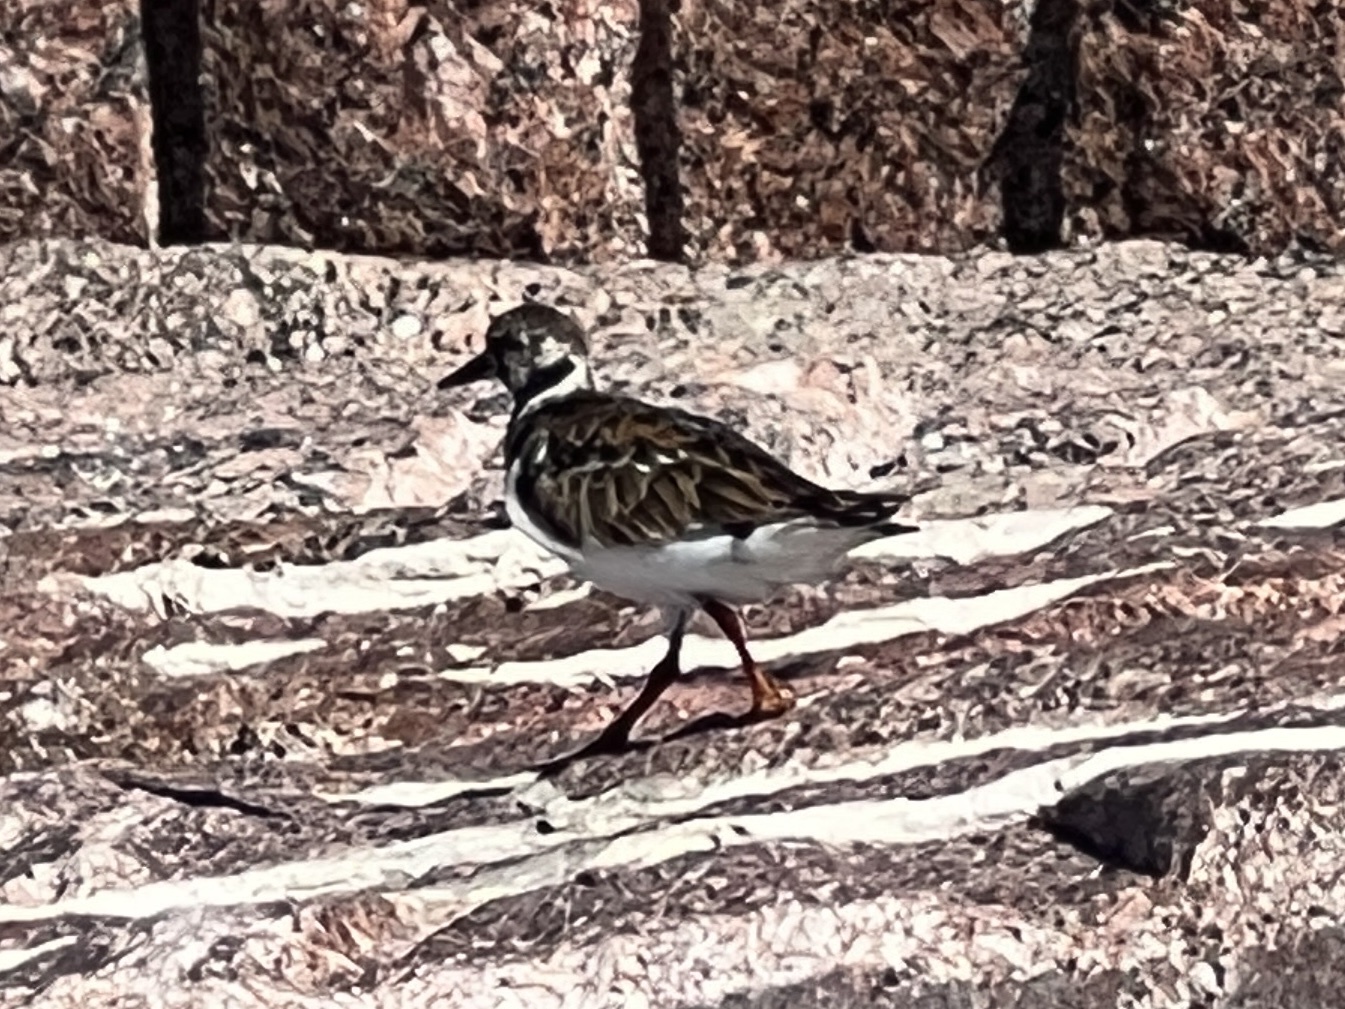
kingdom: Animalia
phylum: Chordata
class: Aves
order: Charadriiformes
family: Scolopacidae
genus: Arenaria
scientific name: Arenaria interpres
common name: Ruddy turnstone
